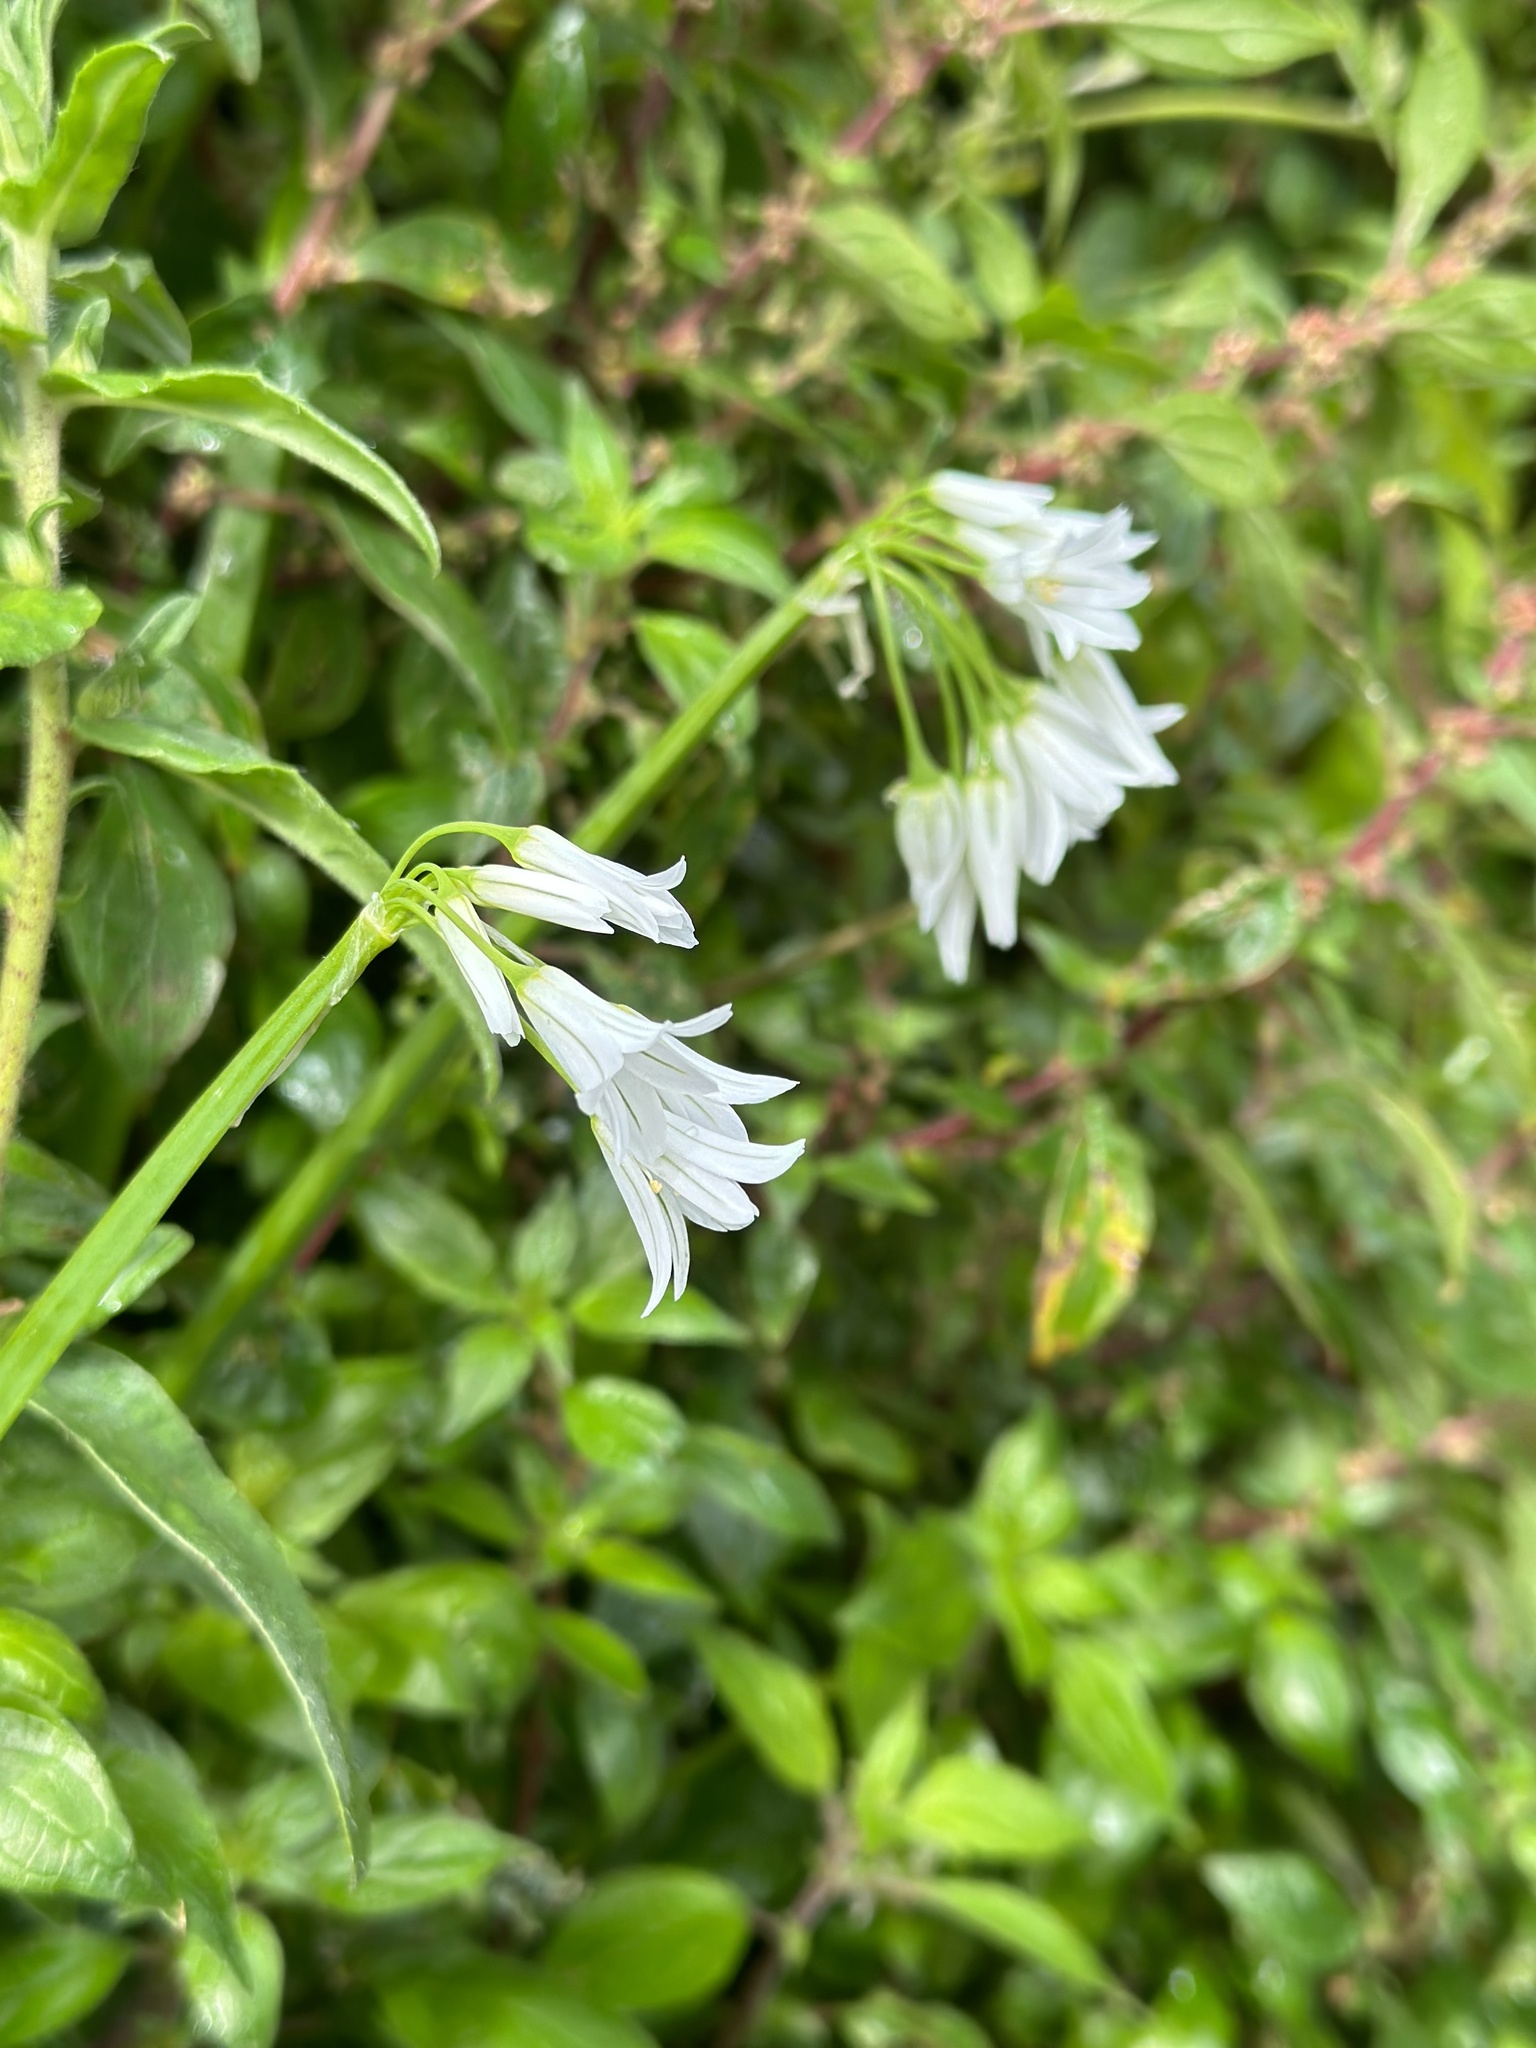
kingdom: Plantae
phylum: Tracheophyta
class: Liliopsida
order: Asparagales
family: Amaryllidaceae
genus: Allium
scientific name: Allium triquetrum
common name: Three-cornered garlic
